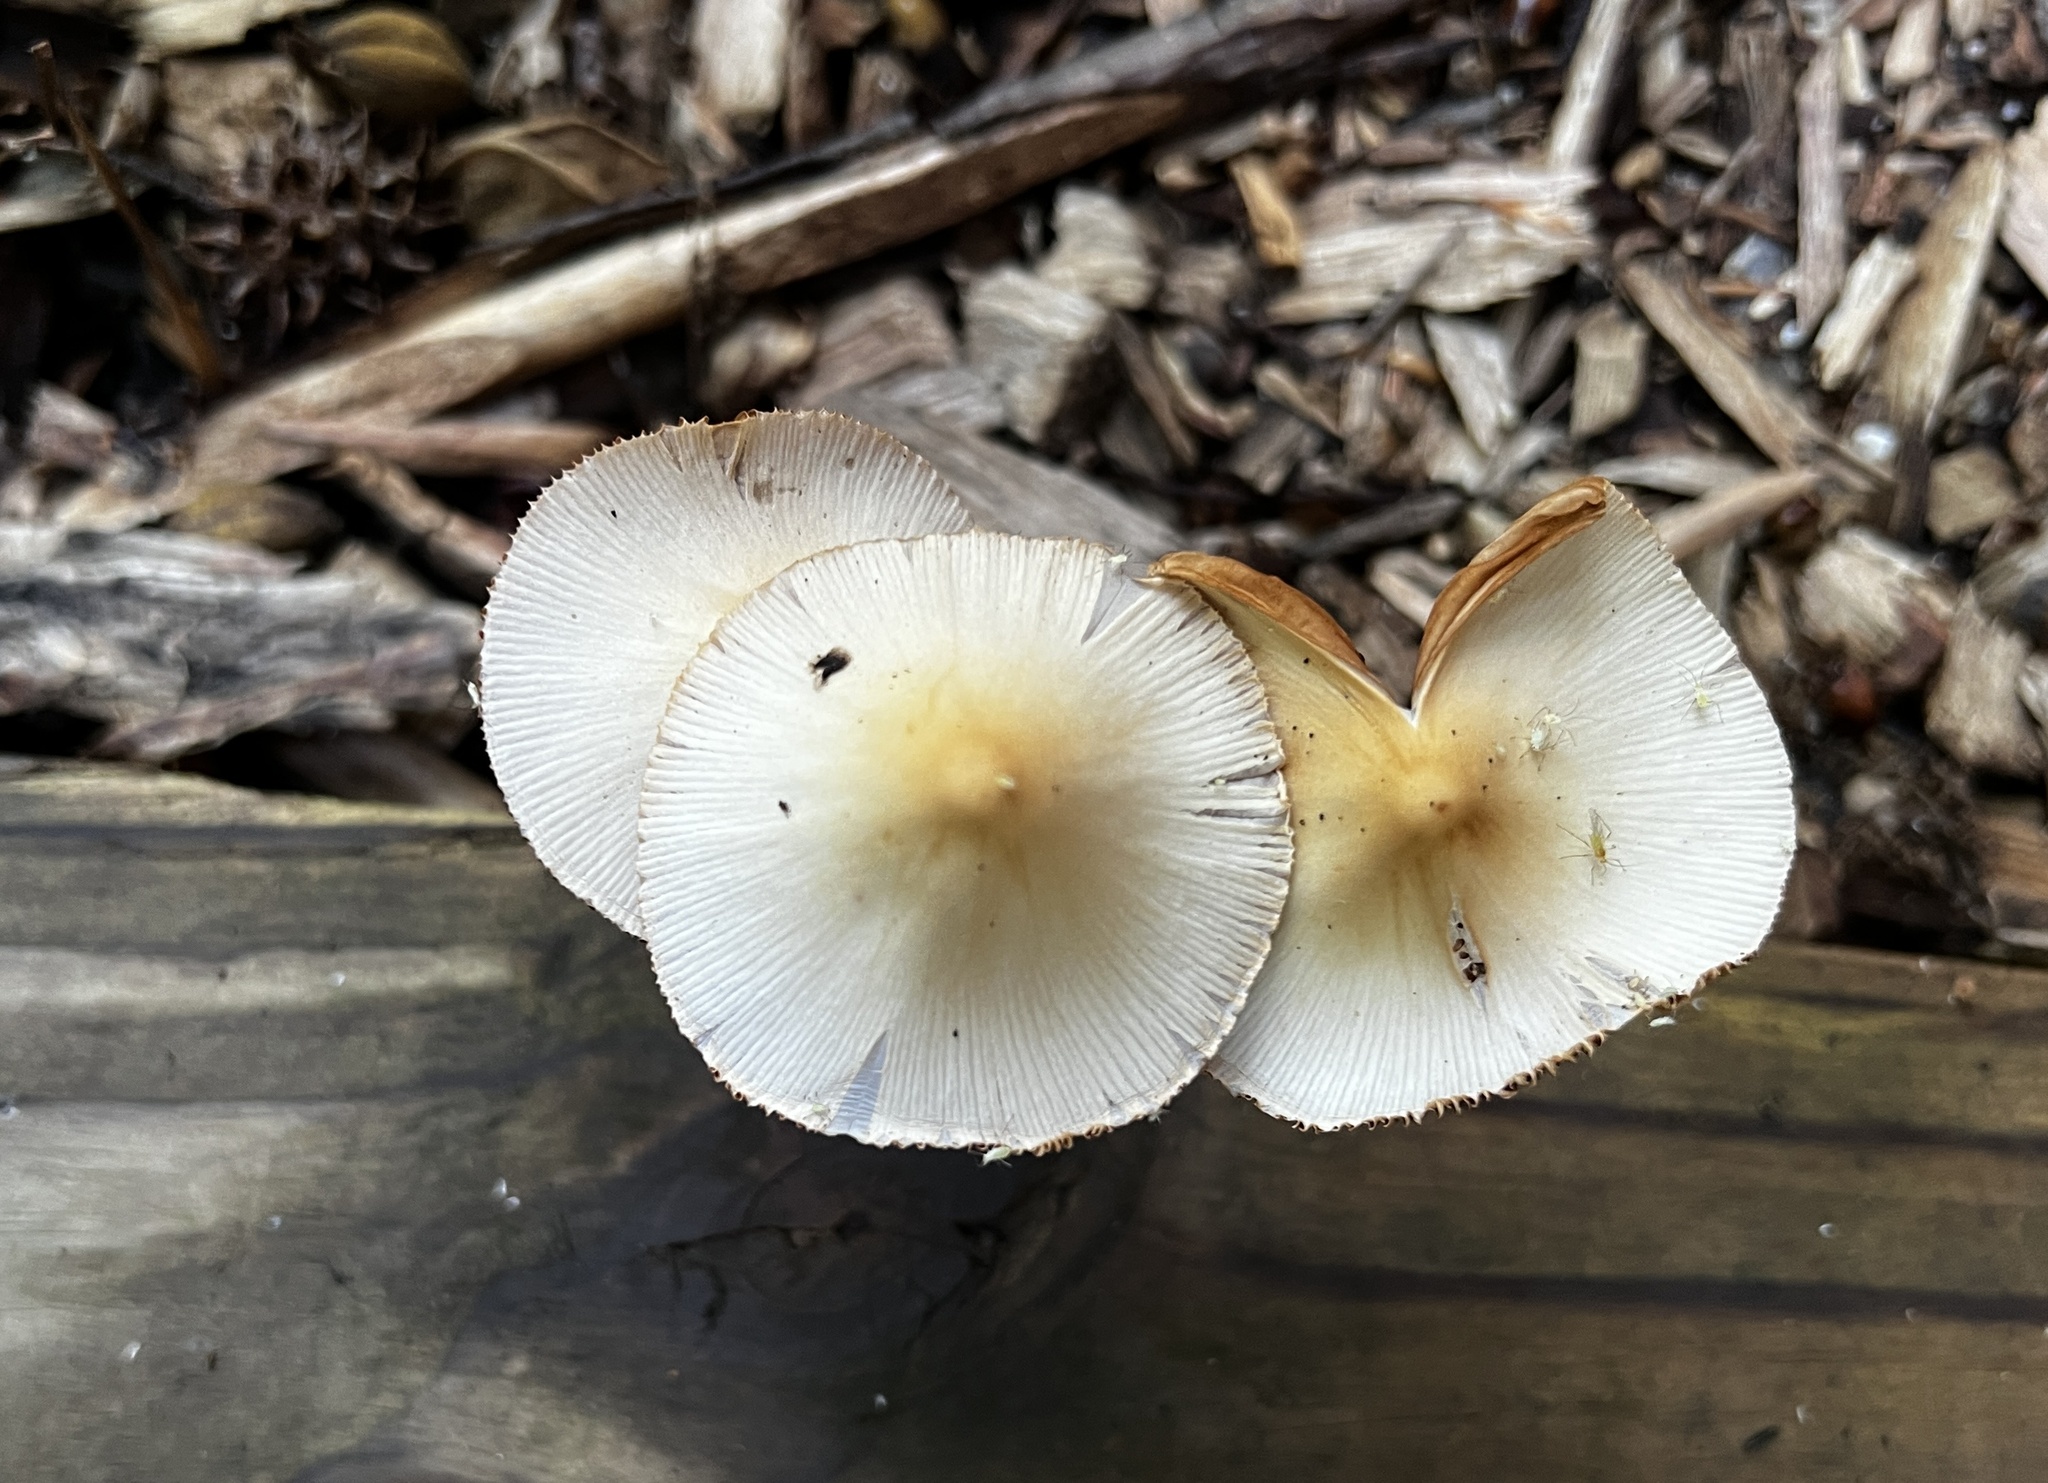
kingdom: Fungi
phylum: Basidiomycota
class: Agaricomycetes
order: Agaricales
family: Bolbitiaceae
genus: Conocybe
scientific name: Conocybe apala
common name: Milky conecap
